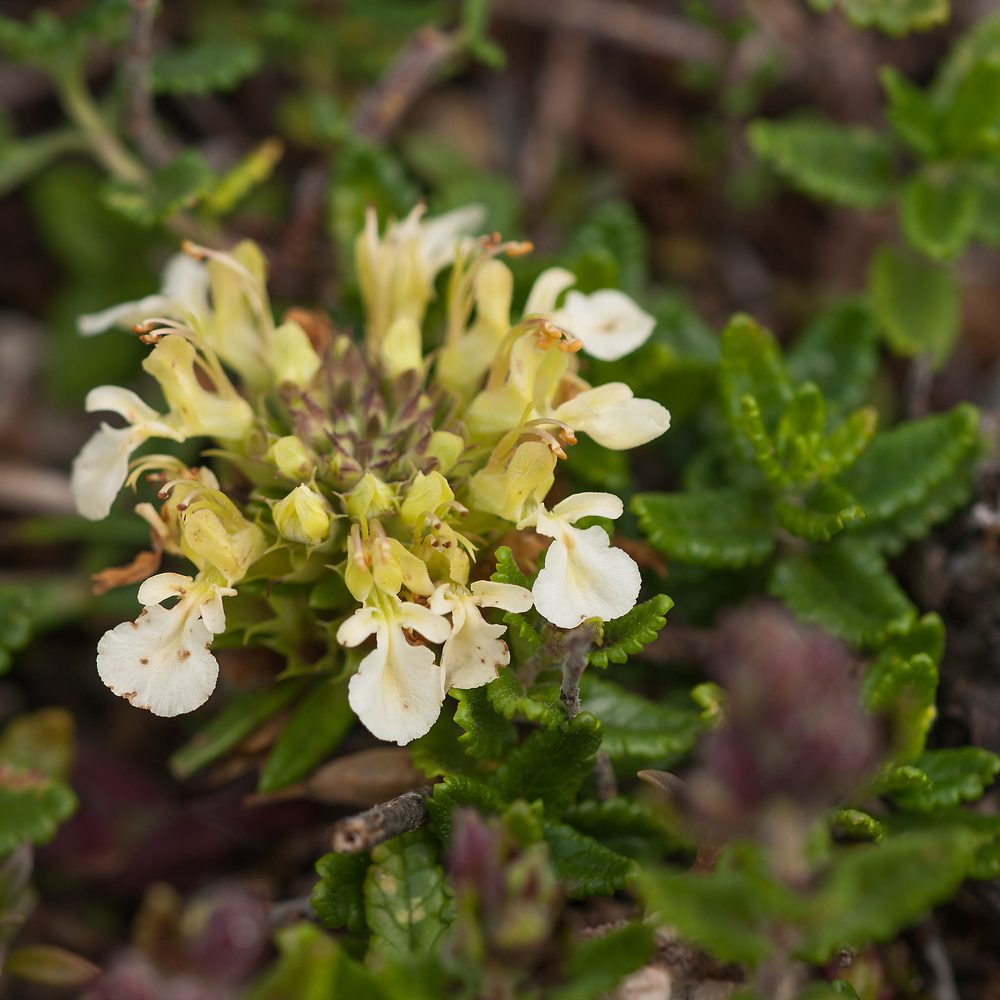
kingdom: Plantae
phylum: Tracheophyta
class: Magnoliopsida
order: Lamiales
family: Lamiaceae
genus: Teucrium
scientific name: Teucrium montanum
